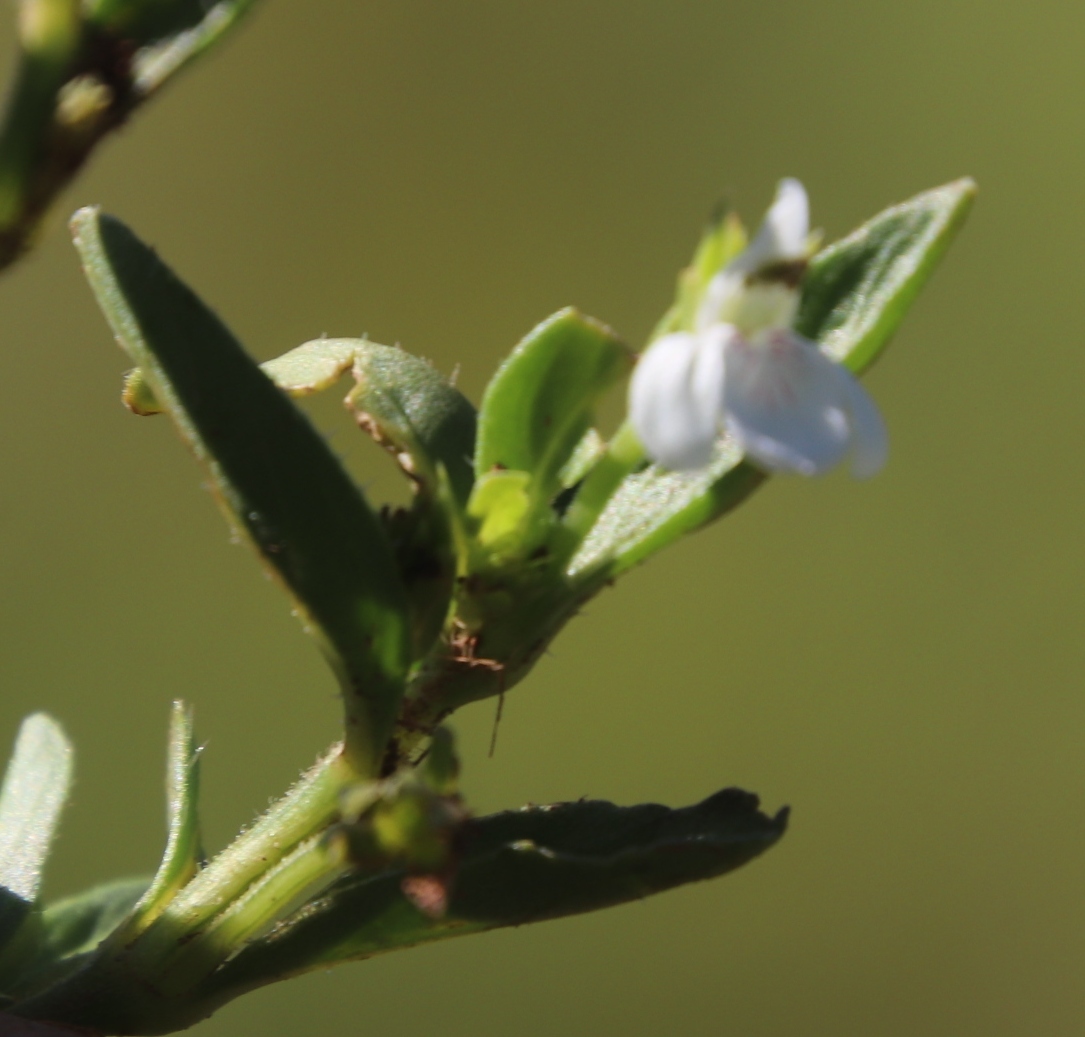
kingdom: Plantae
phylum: Tracheophyta
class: Magnoliopsida
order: Lamiales
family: Acanthaceae
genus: Justicia
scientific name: Justicia anagalloides
